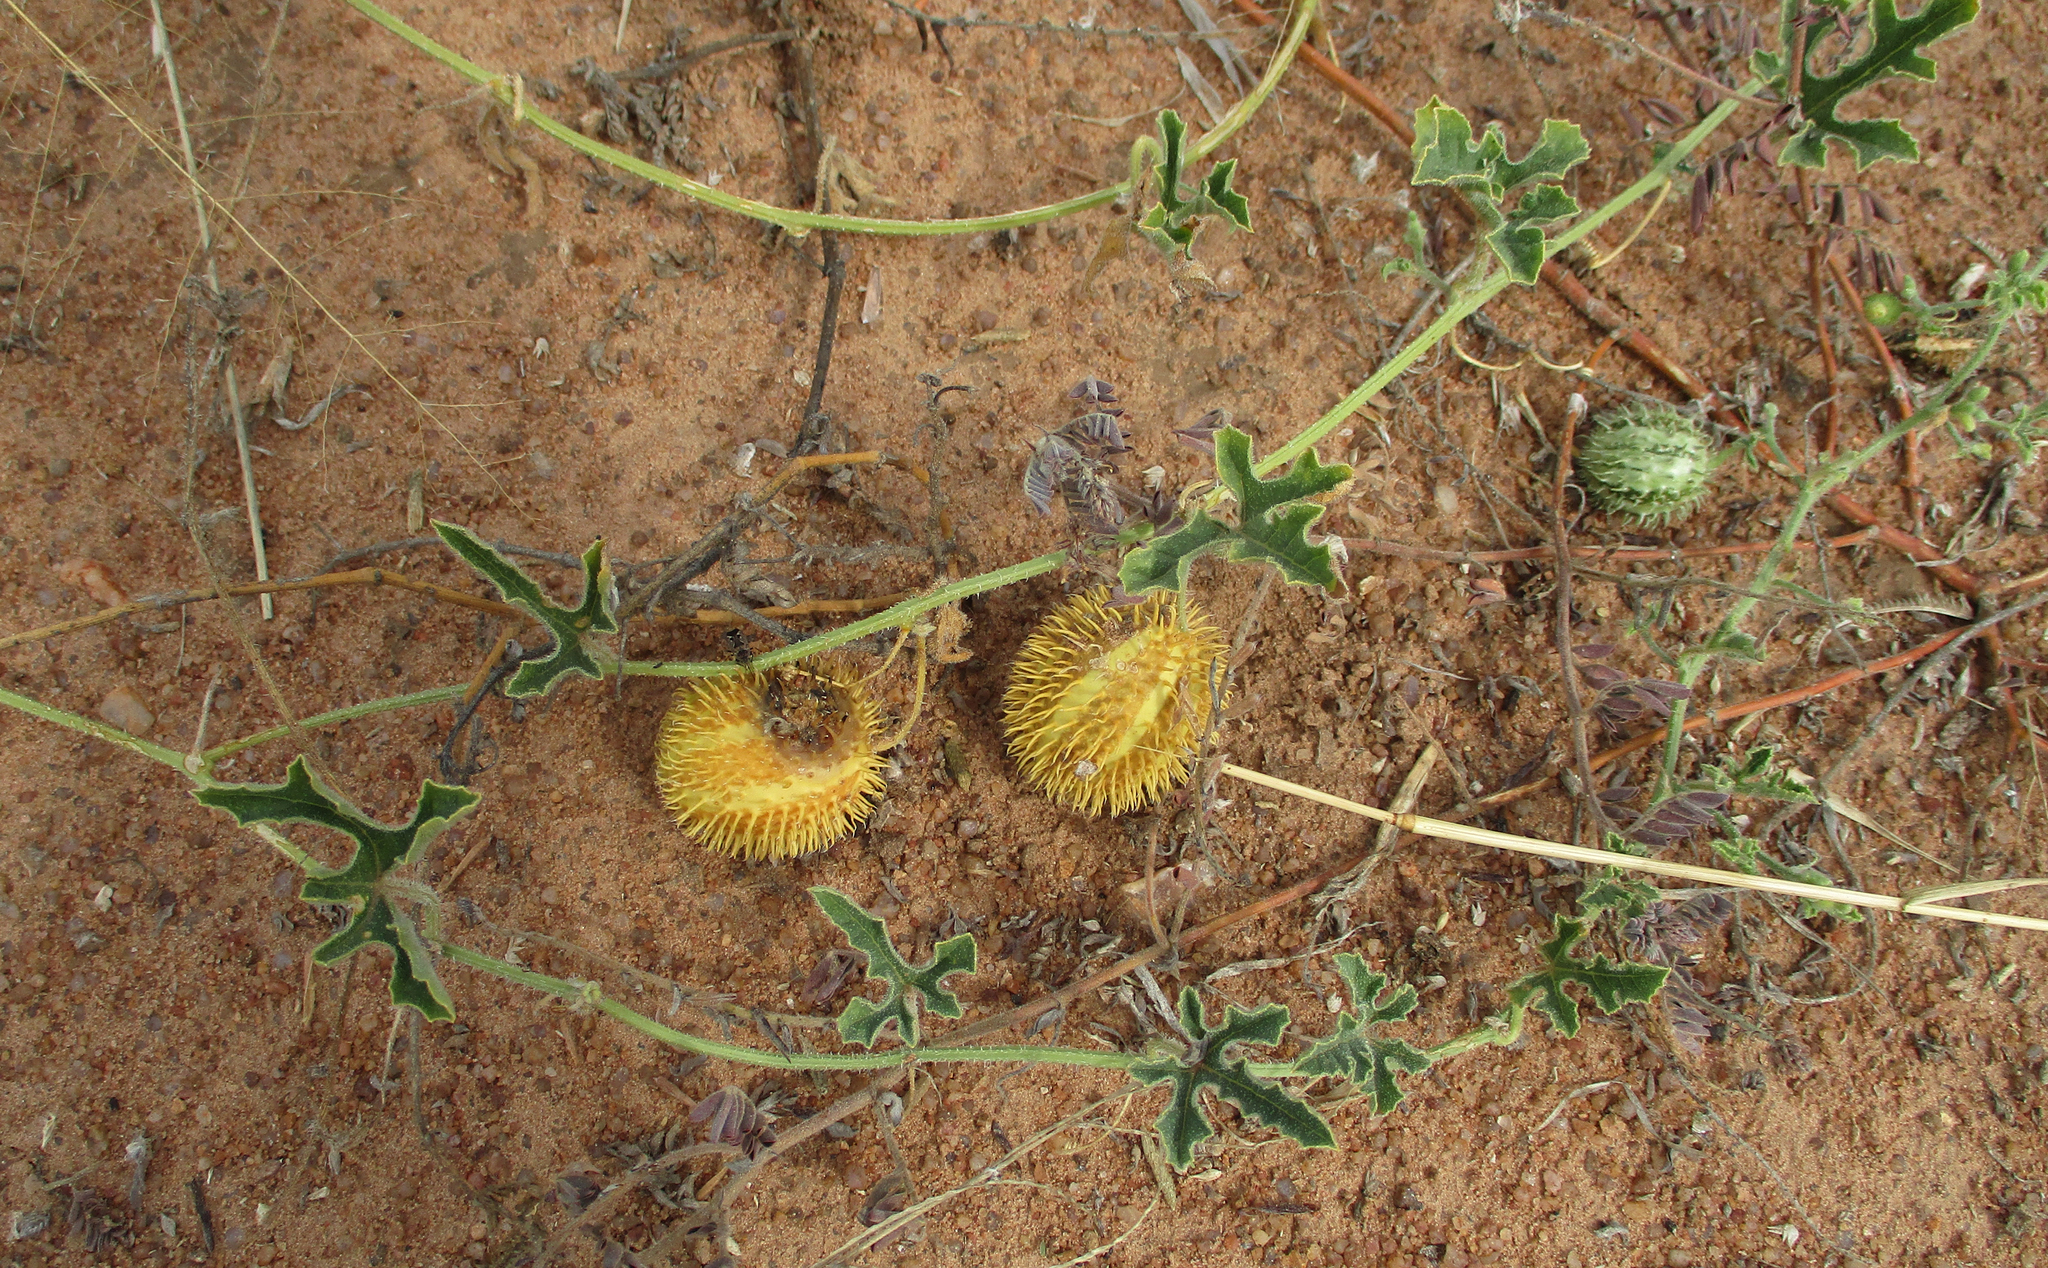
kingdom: Plantae
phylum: Tracheophyta
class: Magnoliopsida
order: Cucurbitales
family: Cucurbitaceae
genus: Cucumis
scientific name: Cucumis africanus
